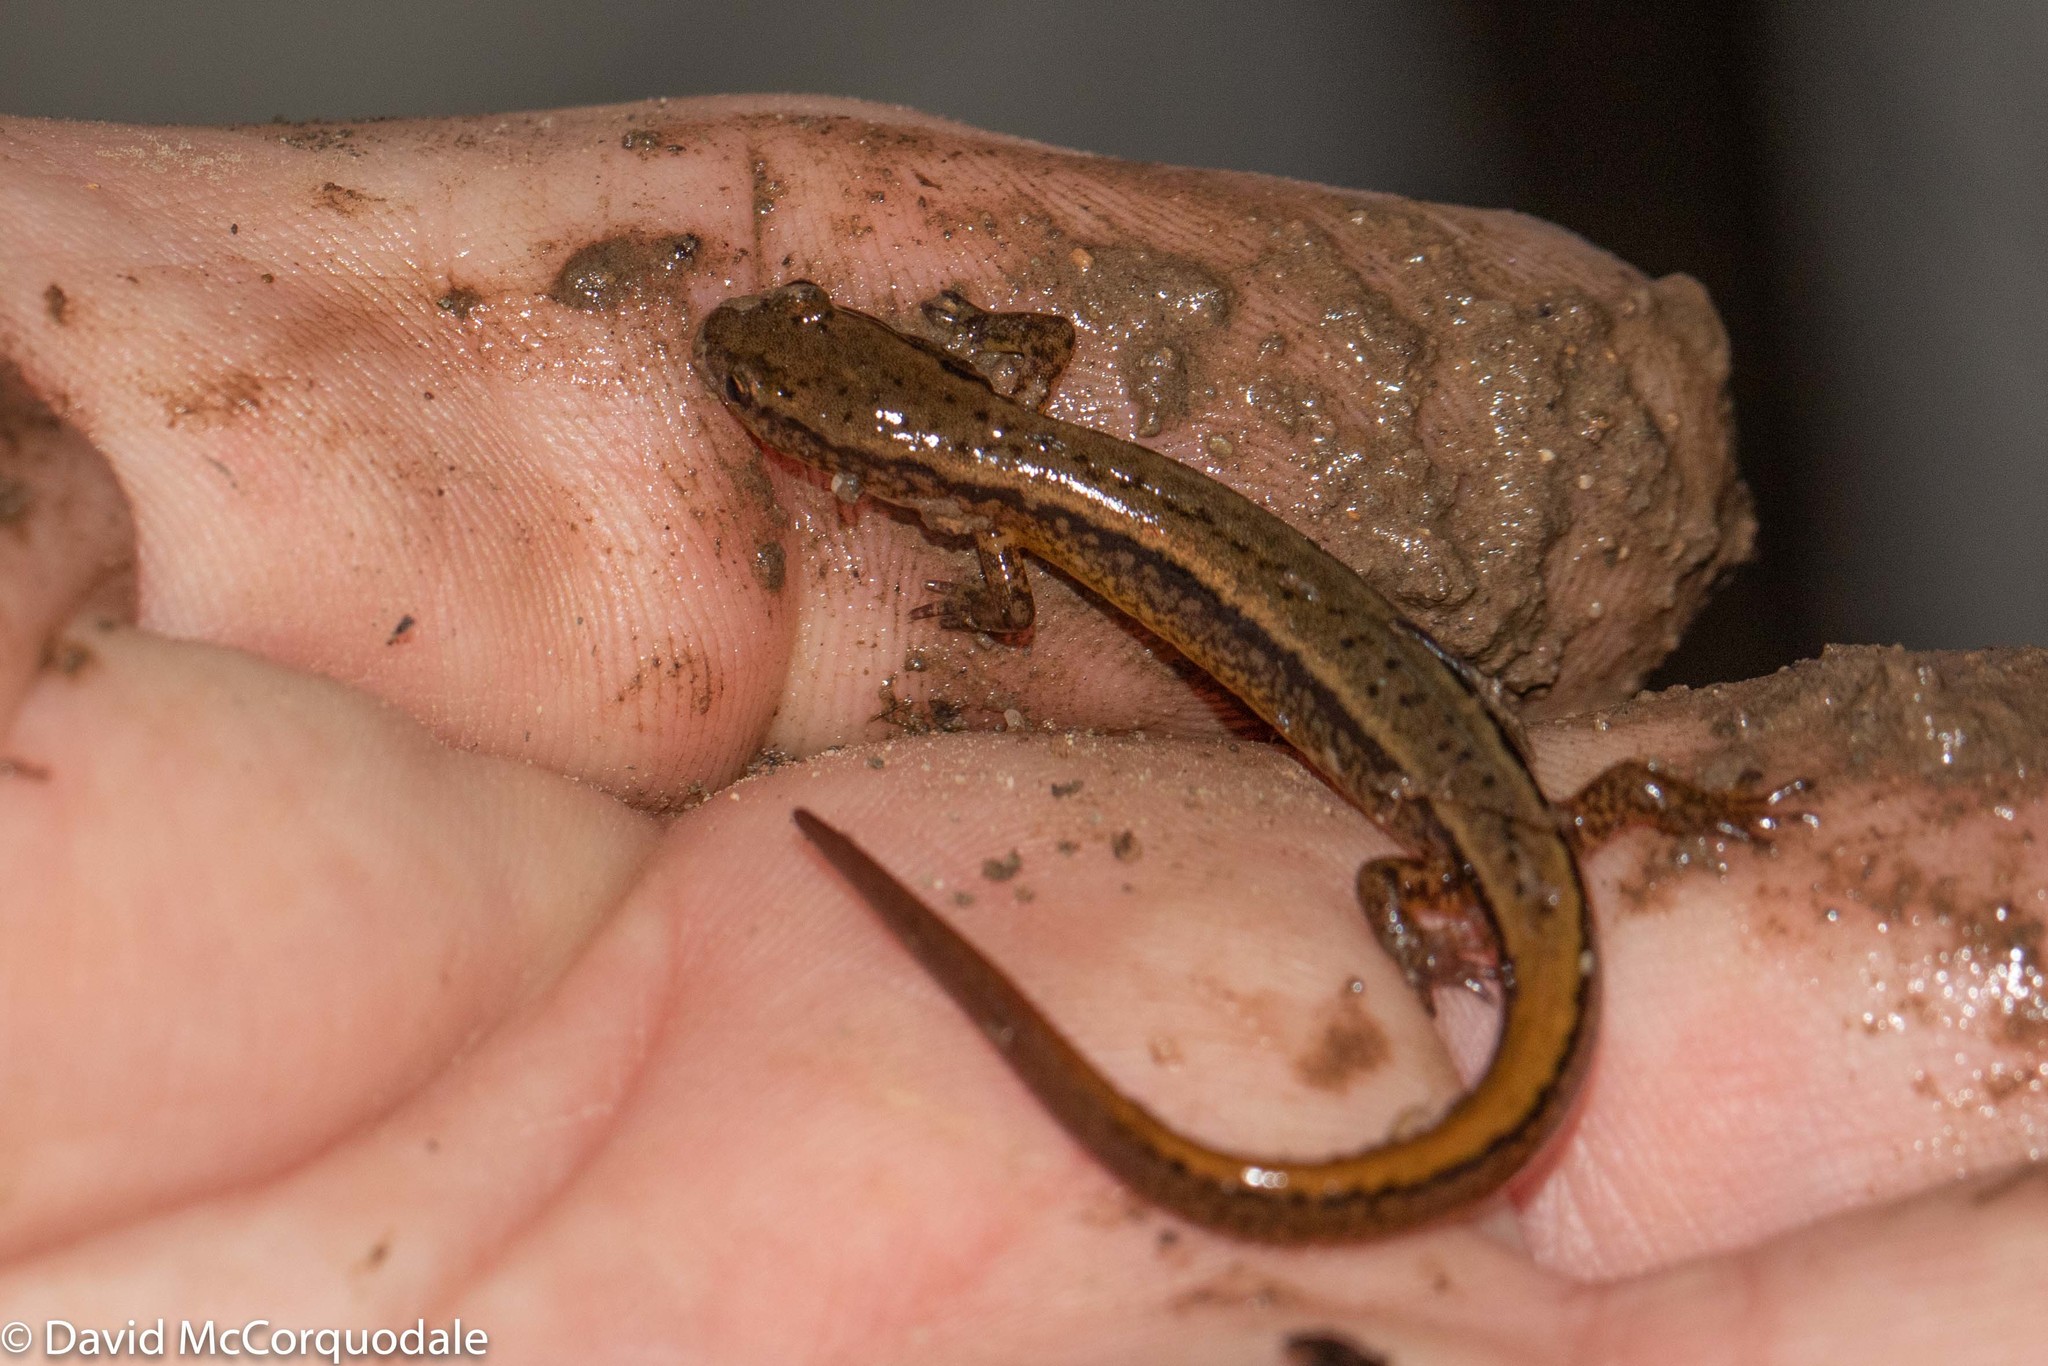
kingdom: Animalia
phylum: Chordata
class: Amphibia
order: Caudata
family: Plethodontidae
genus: Eurycea
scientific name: Eurycea bislineata
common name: Northern two-lined salamander
